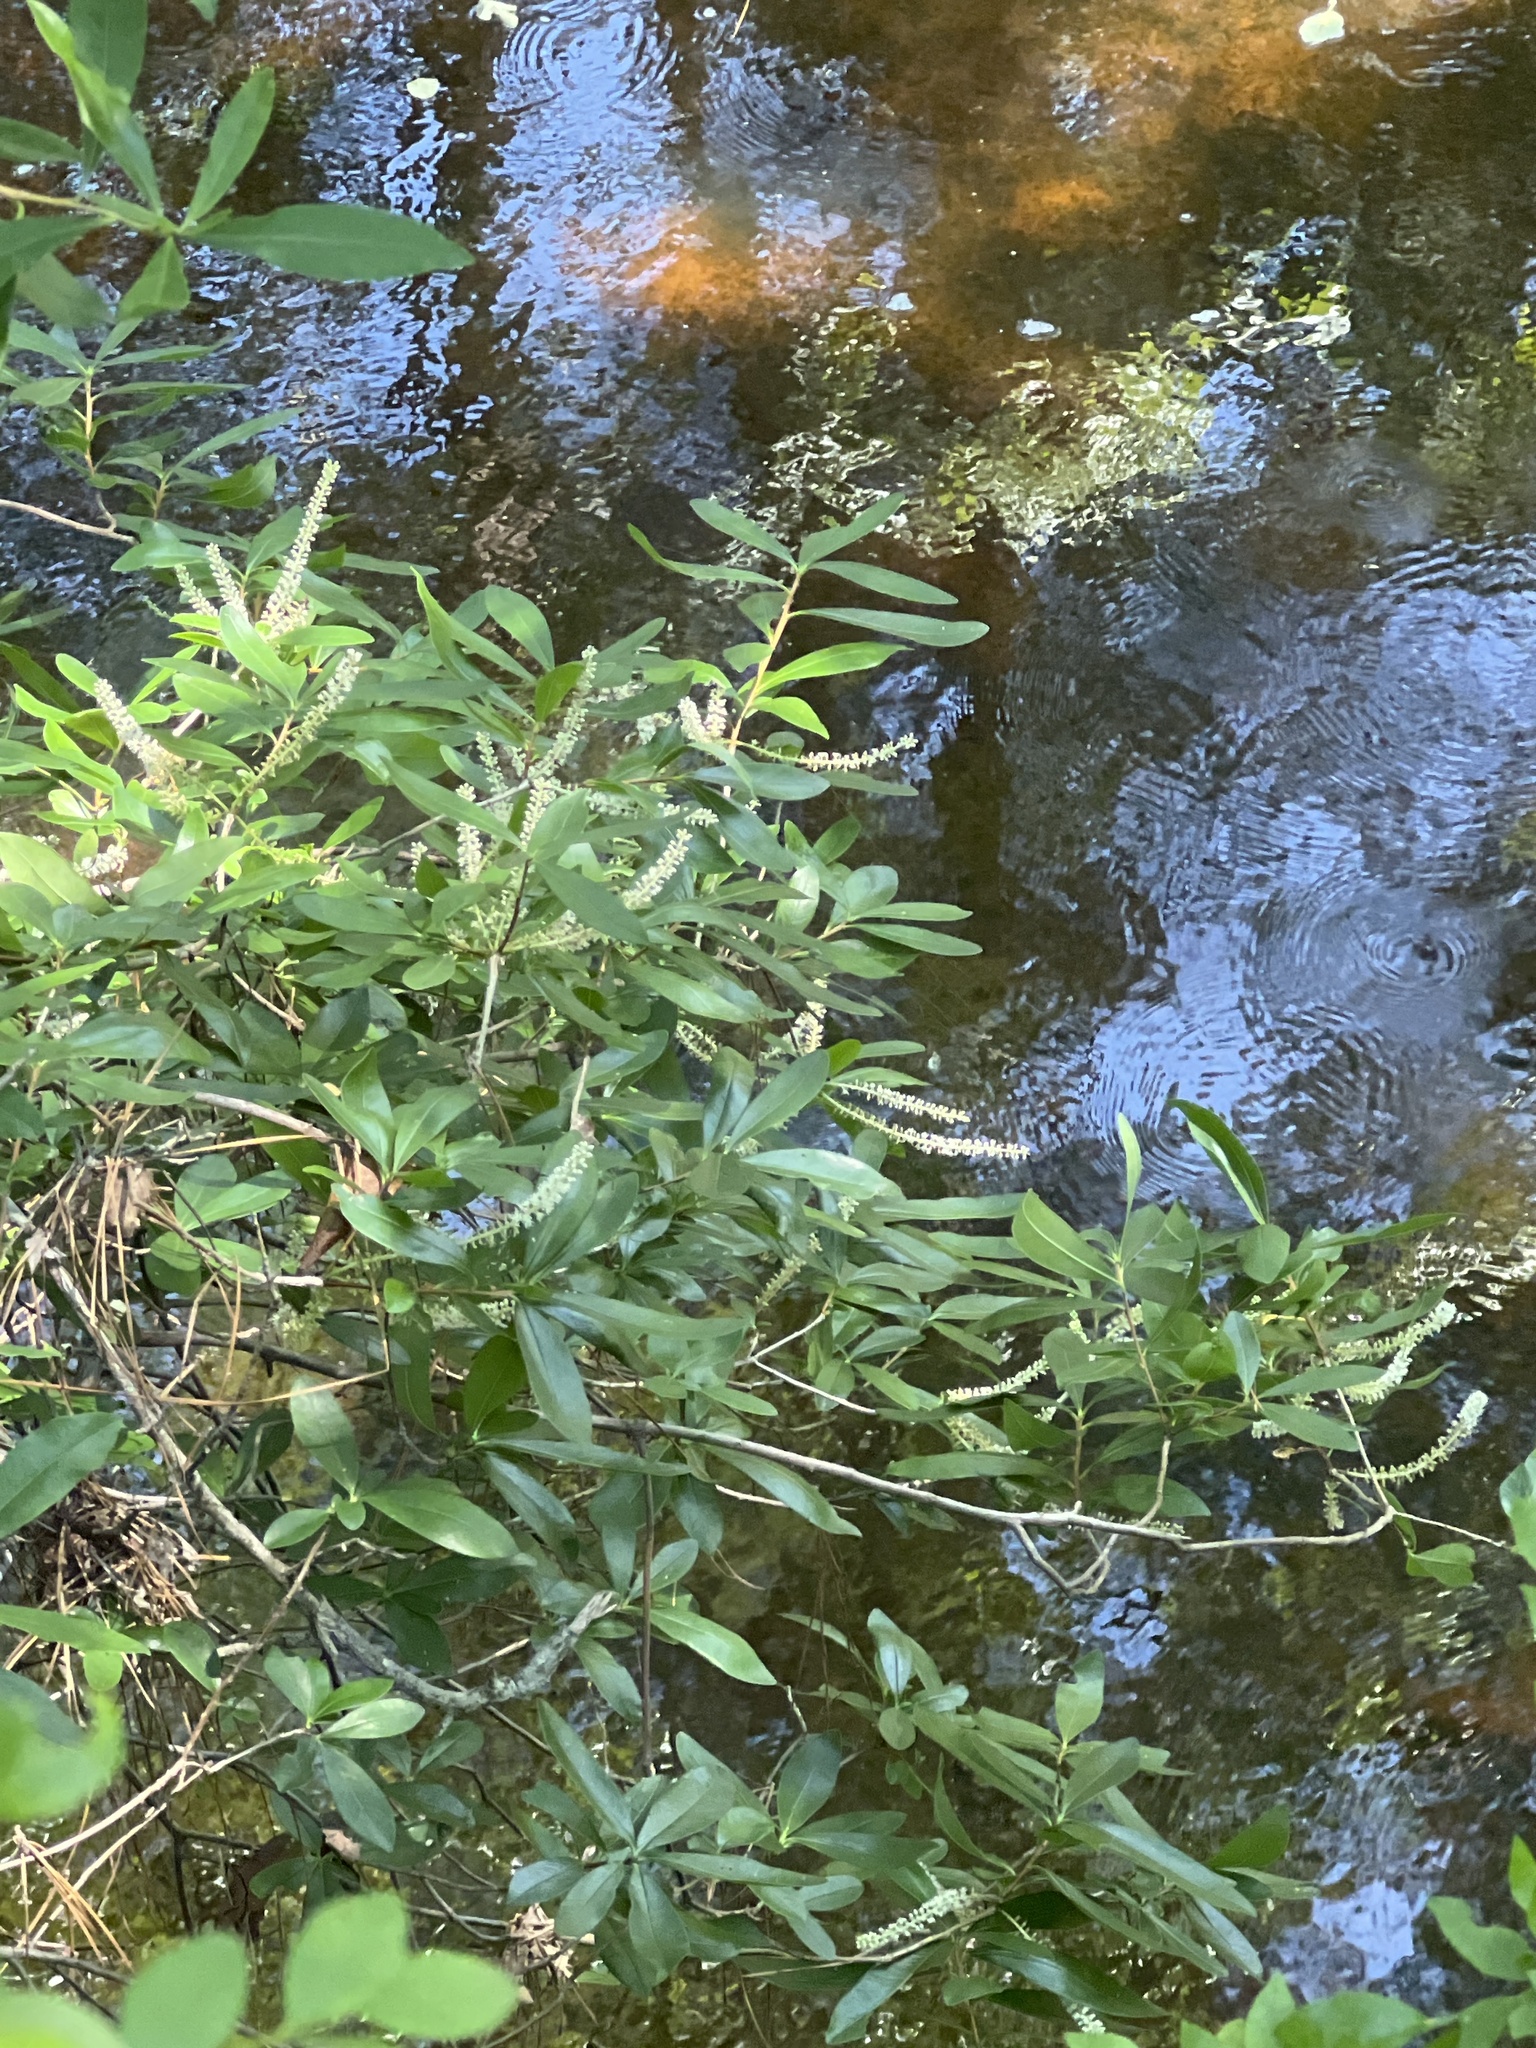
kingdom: Plantae
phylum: Tracheophyta
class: Magnoliopsida
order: Ericales
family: Cyrillaceae
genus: Cyrilla
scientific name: Cyrilla racemiflora
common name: Black titi
